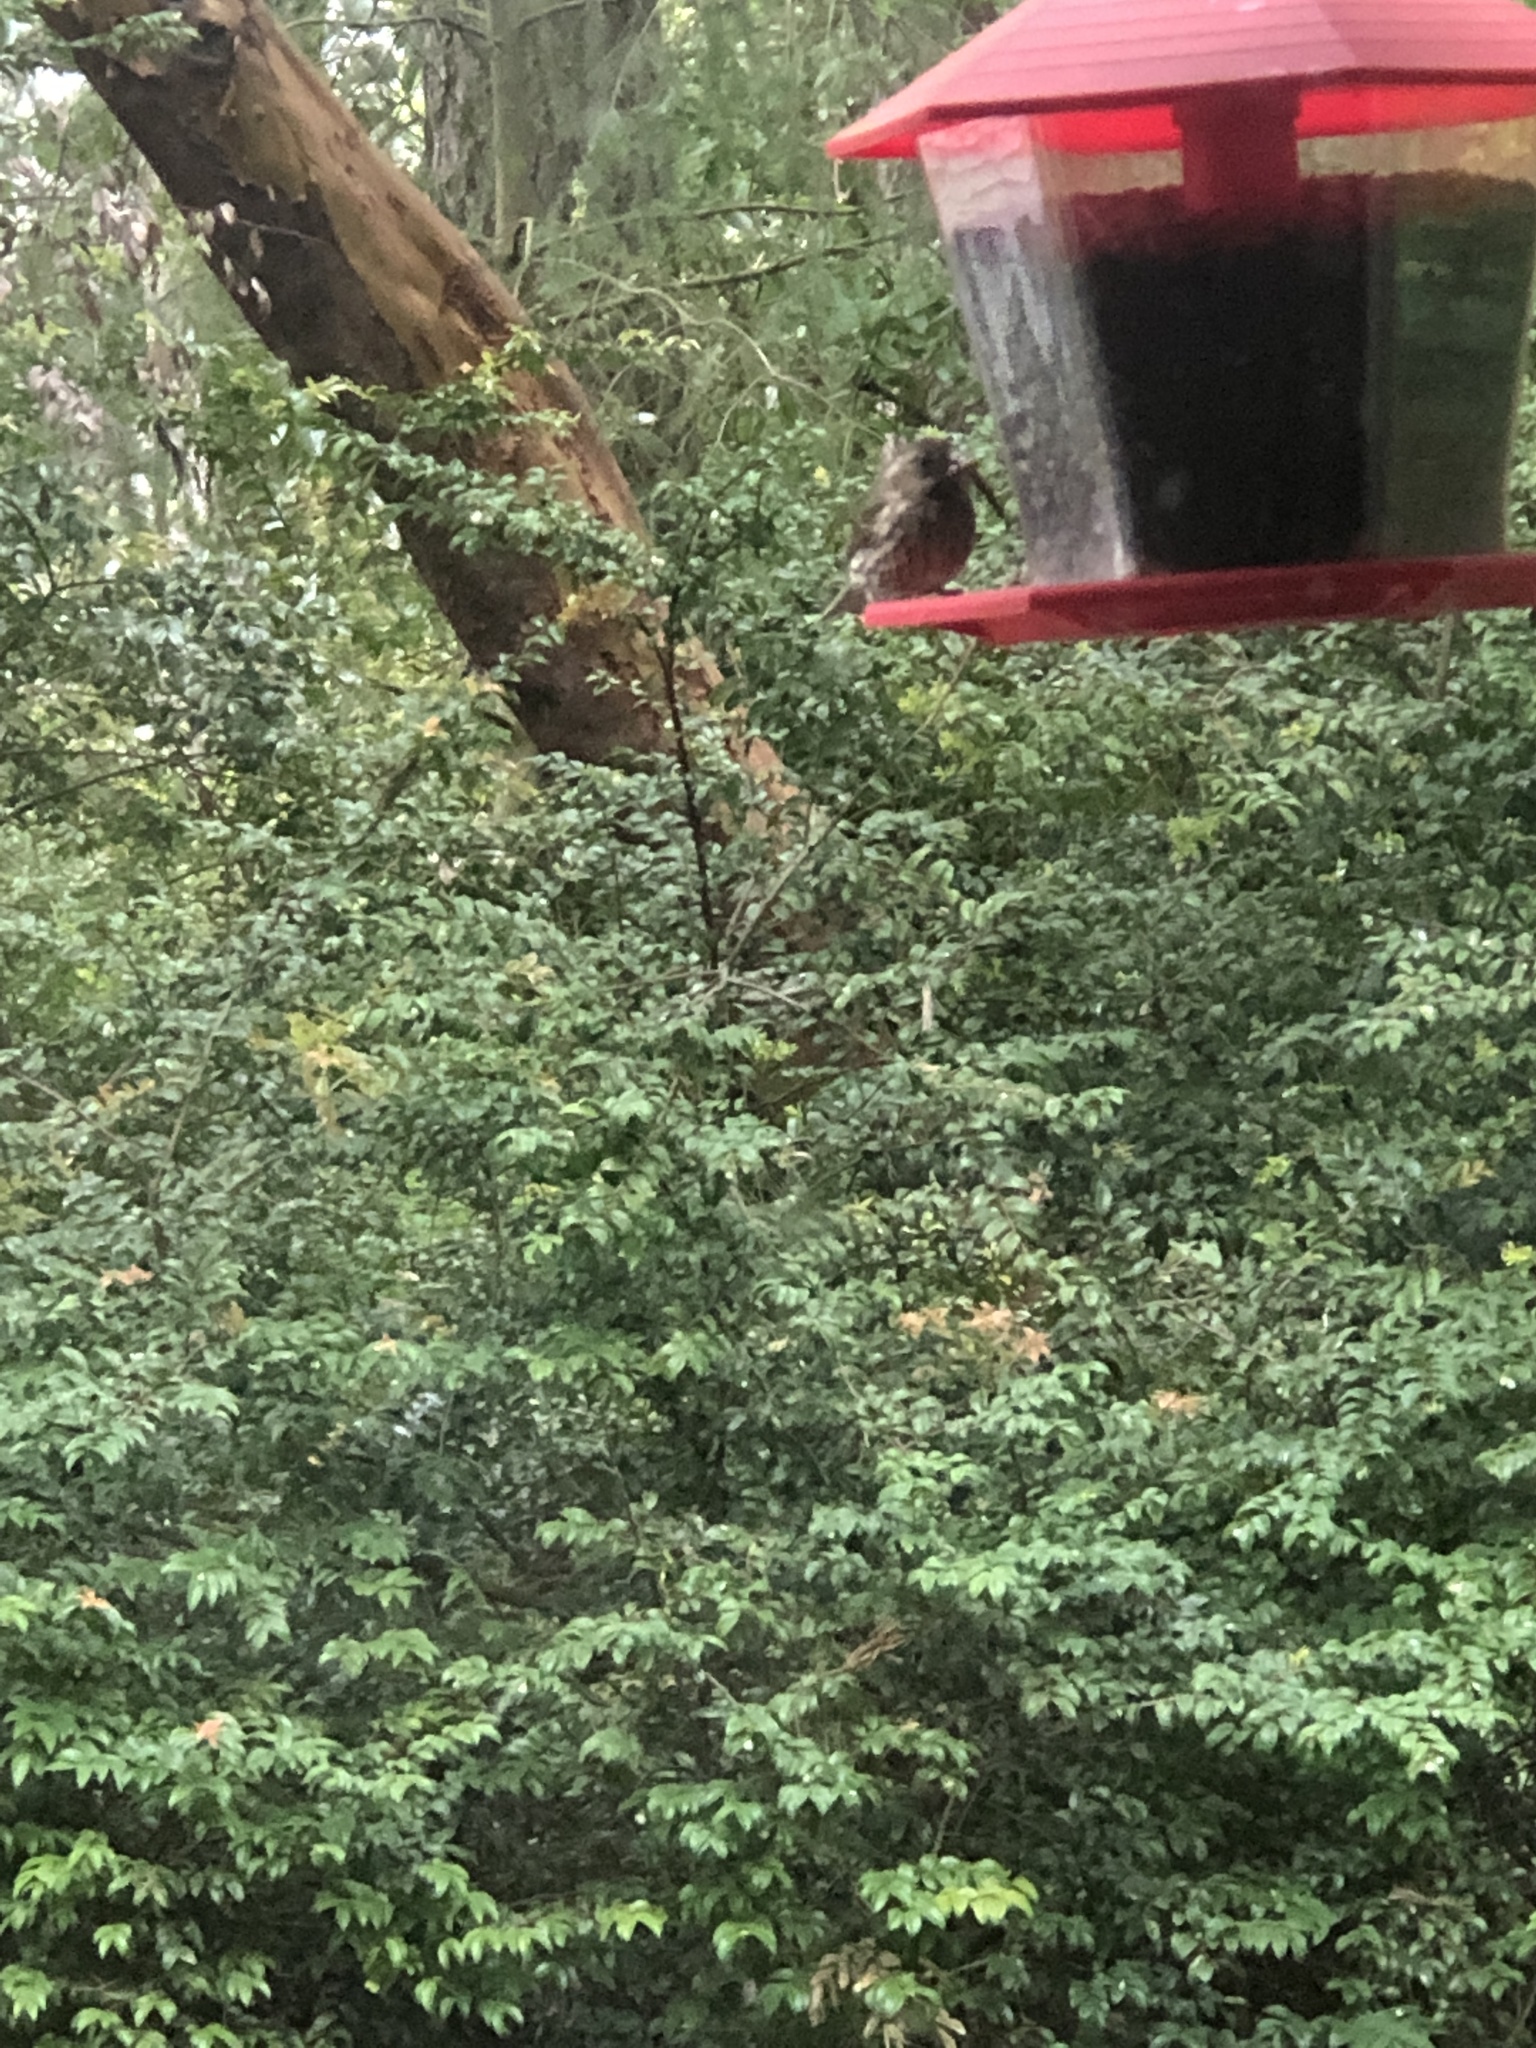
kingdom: Animalia
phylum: Chordata
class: Aves
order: Passeriformes
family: Fringillidae
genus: Spinus
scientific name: Spinus pinus
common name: Pine siskin
